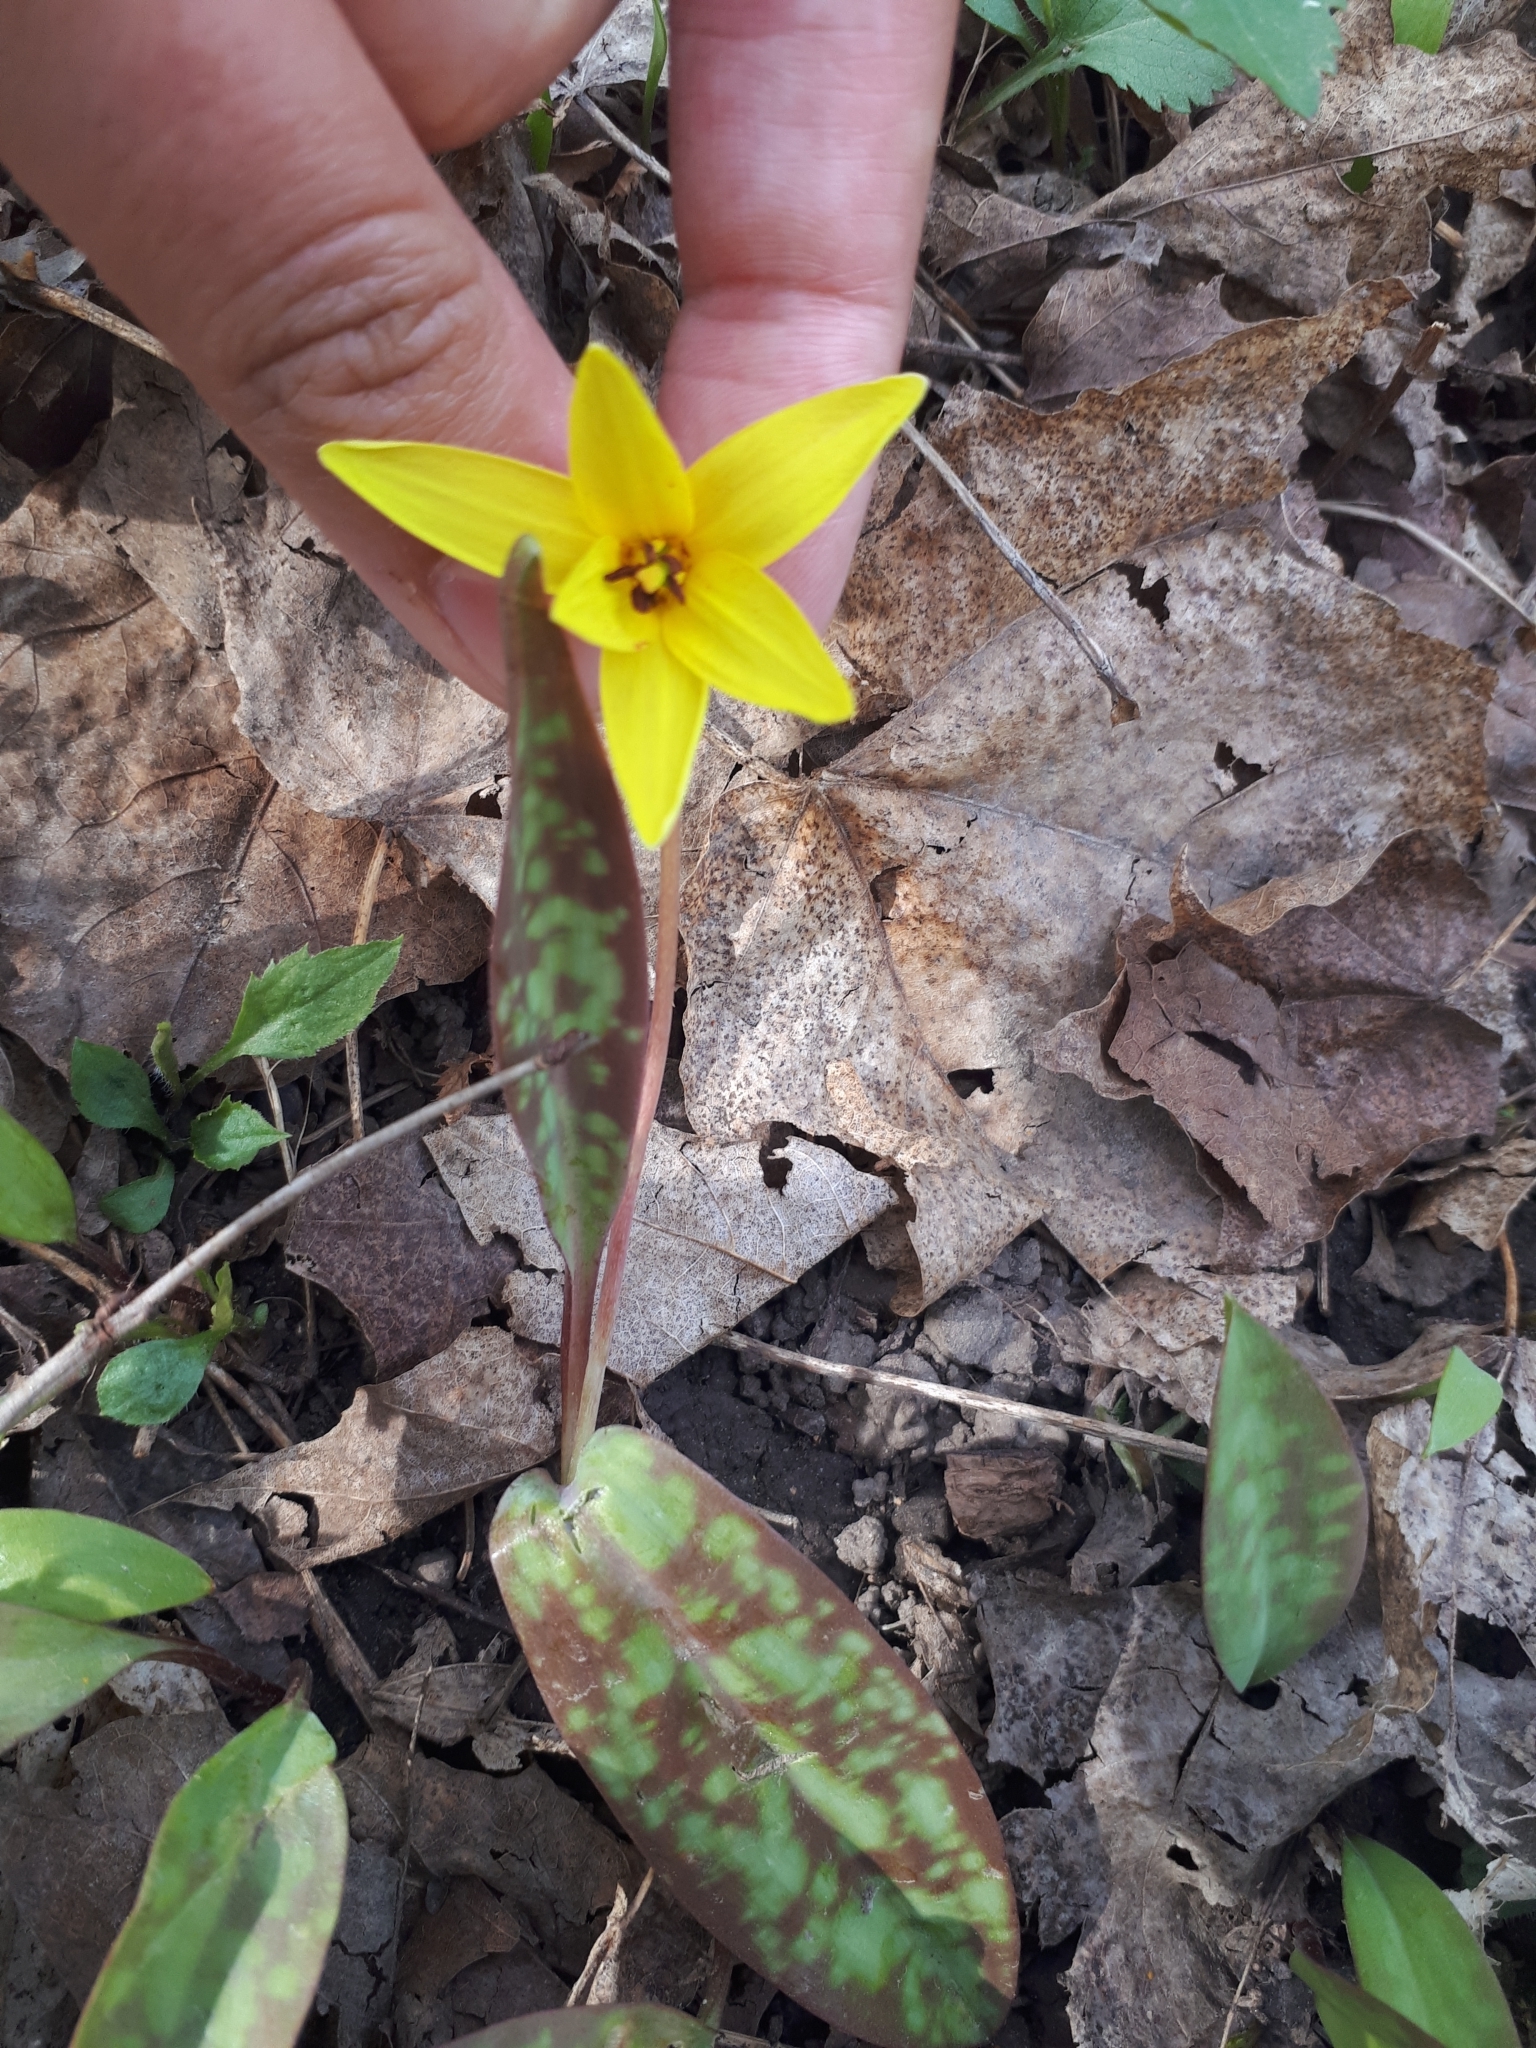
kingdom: Plantae
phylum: Tracheophyta
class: Liliopsida
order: Liliales
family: Liliaceae
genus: Erythronium
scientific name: Erythronium americanum
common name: Yellow adder's-tongue
